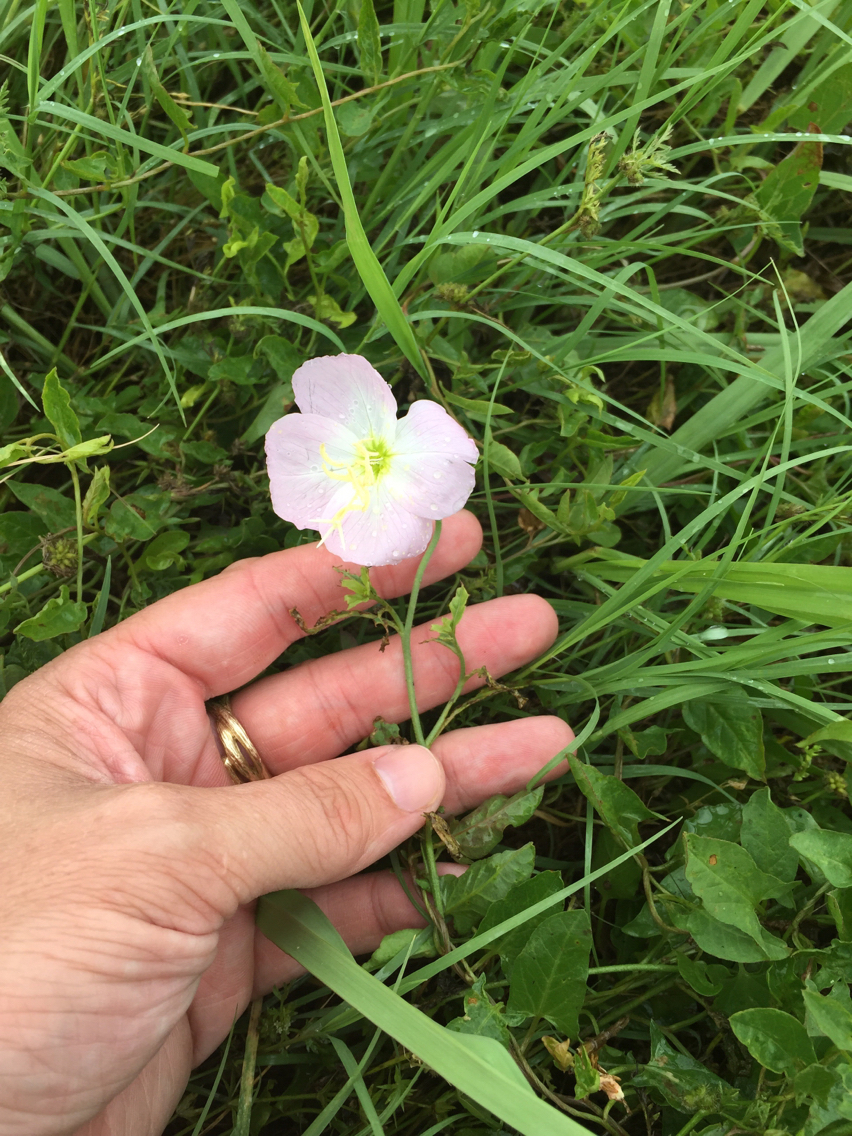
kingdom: Plantae
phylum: Tracheophyta
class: Magnoliopsida
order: Myrtales
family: Onagraceae
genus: Oenothera
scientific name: Oenothera speciosa
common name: White evening-primrose
